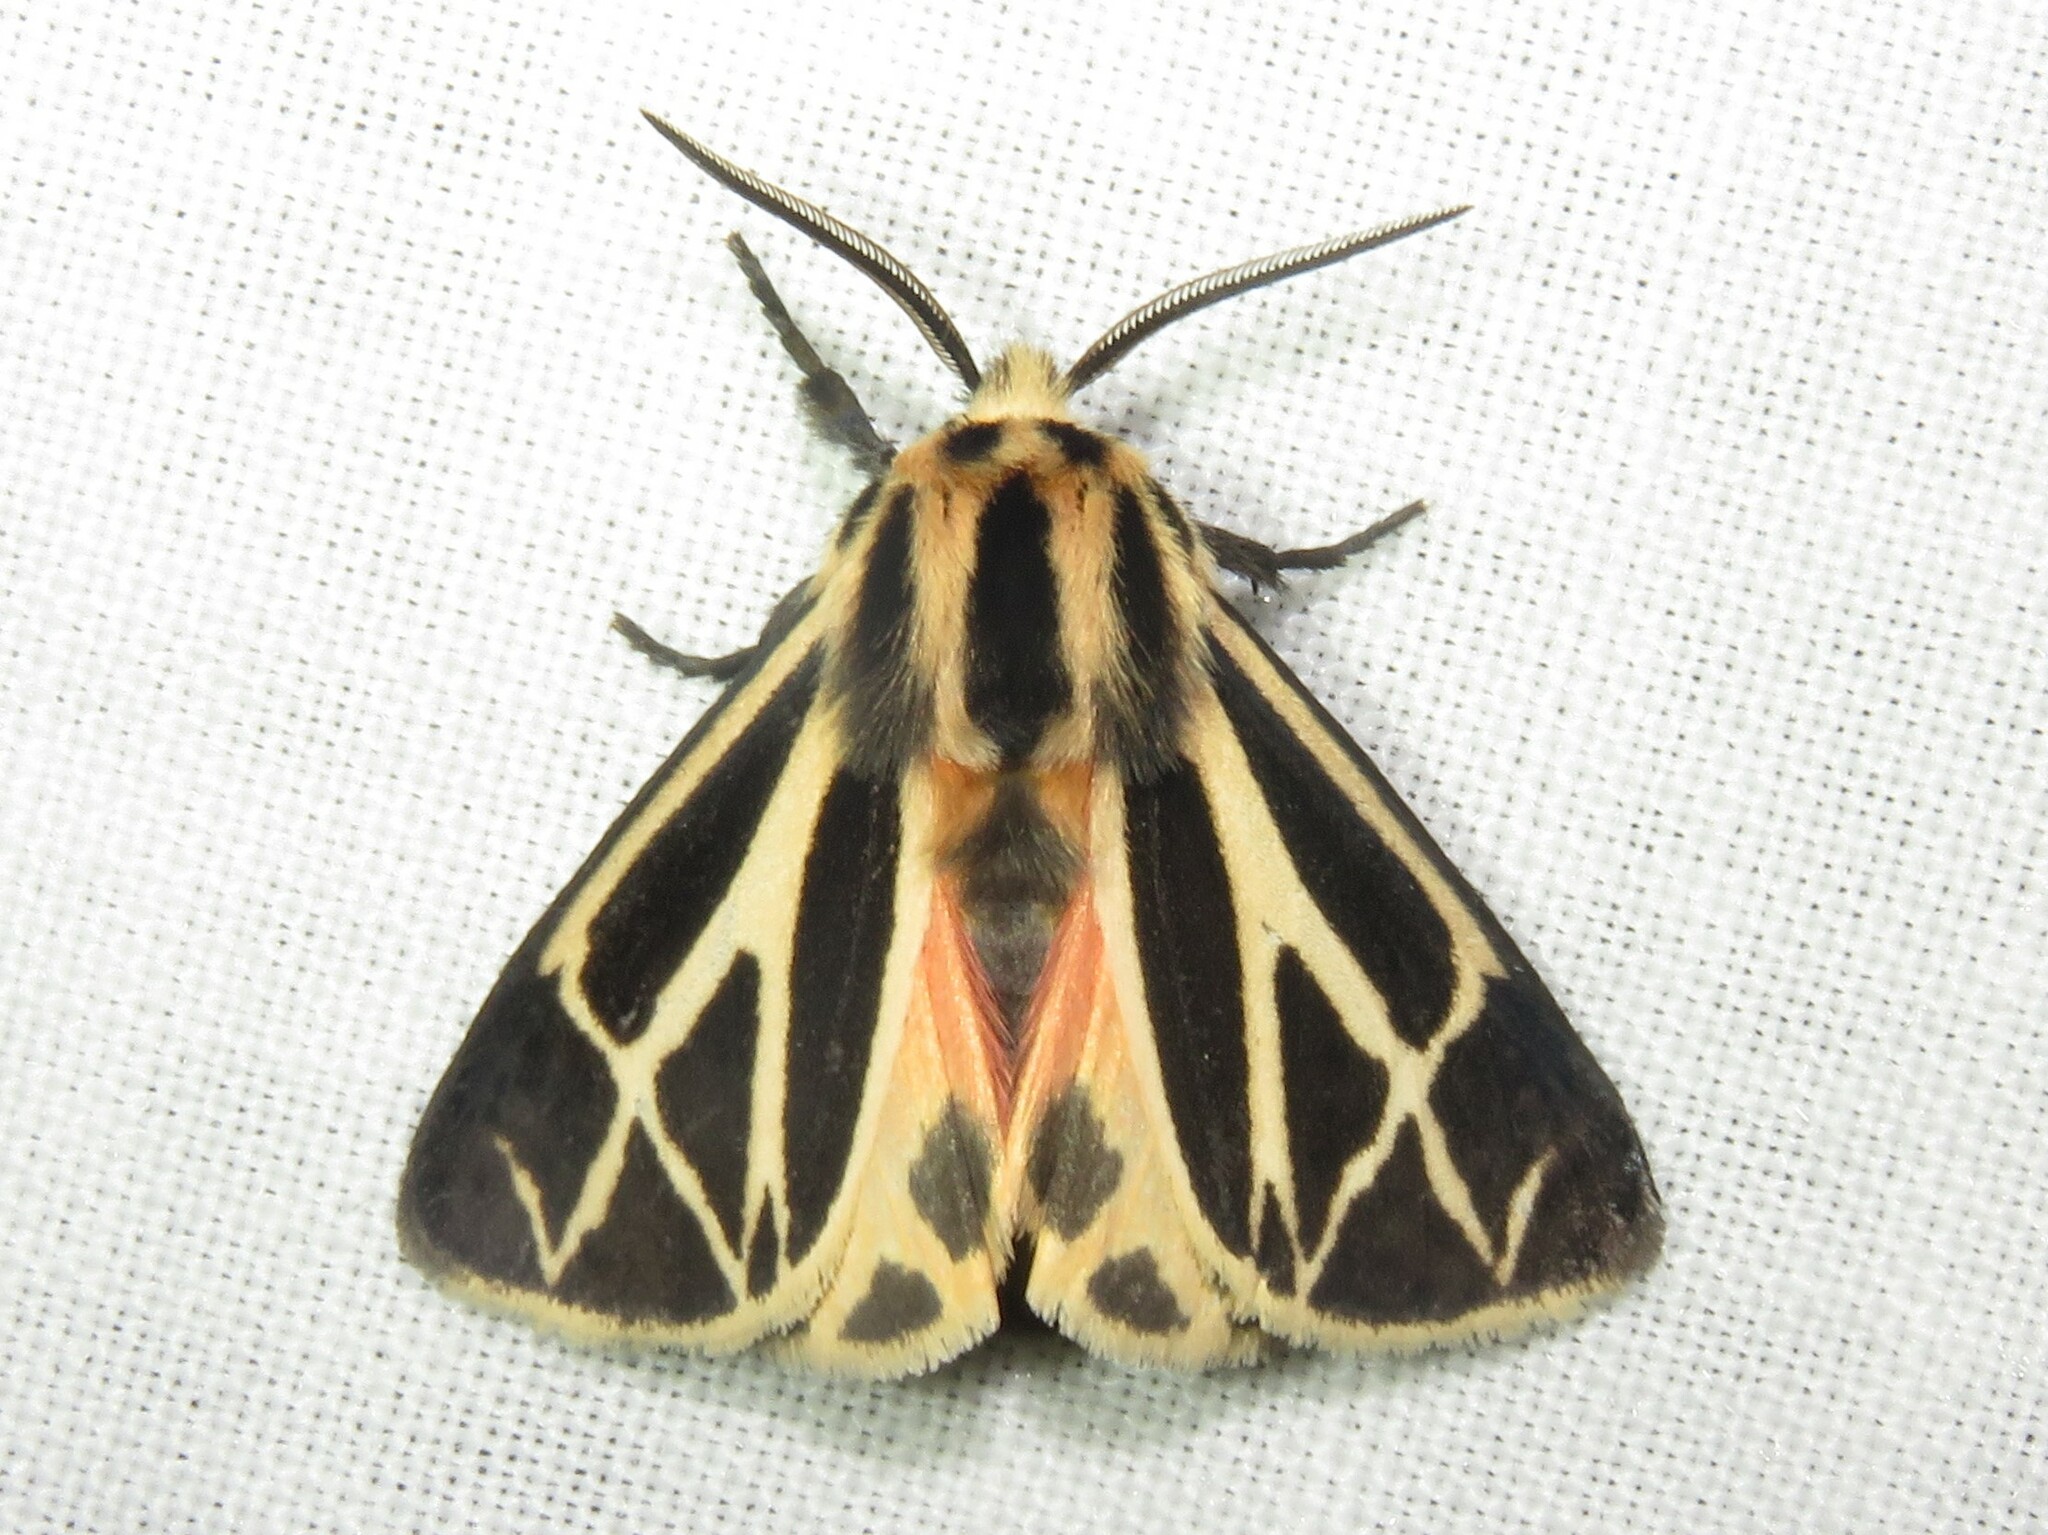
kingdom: Animalia
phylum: Arthropoda
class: Insecta
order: Lepidoptera
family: Erebidae
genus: Apantesis
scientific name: Apantesis phalerata
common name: Harnessed tiger moth
